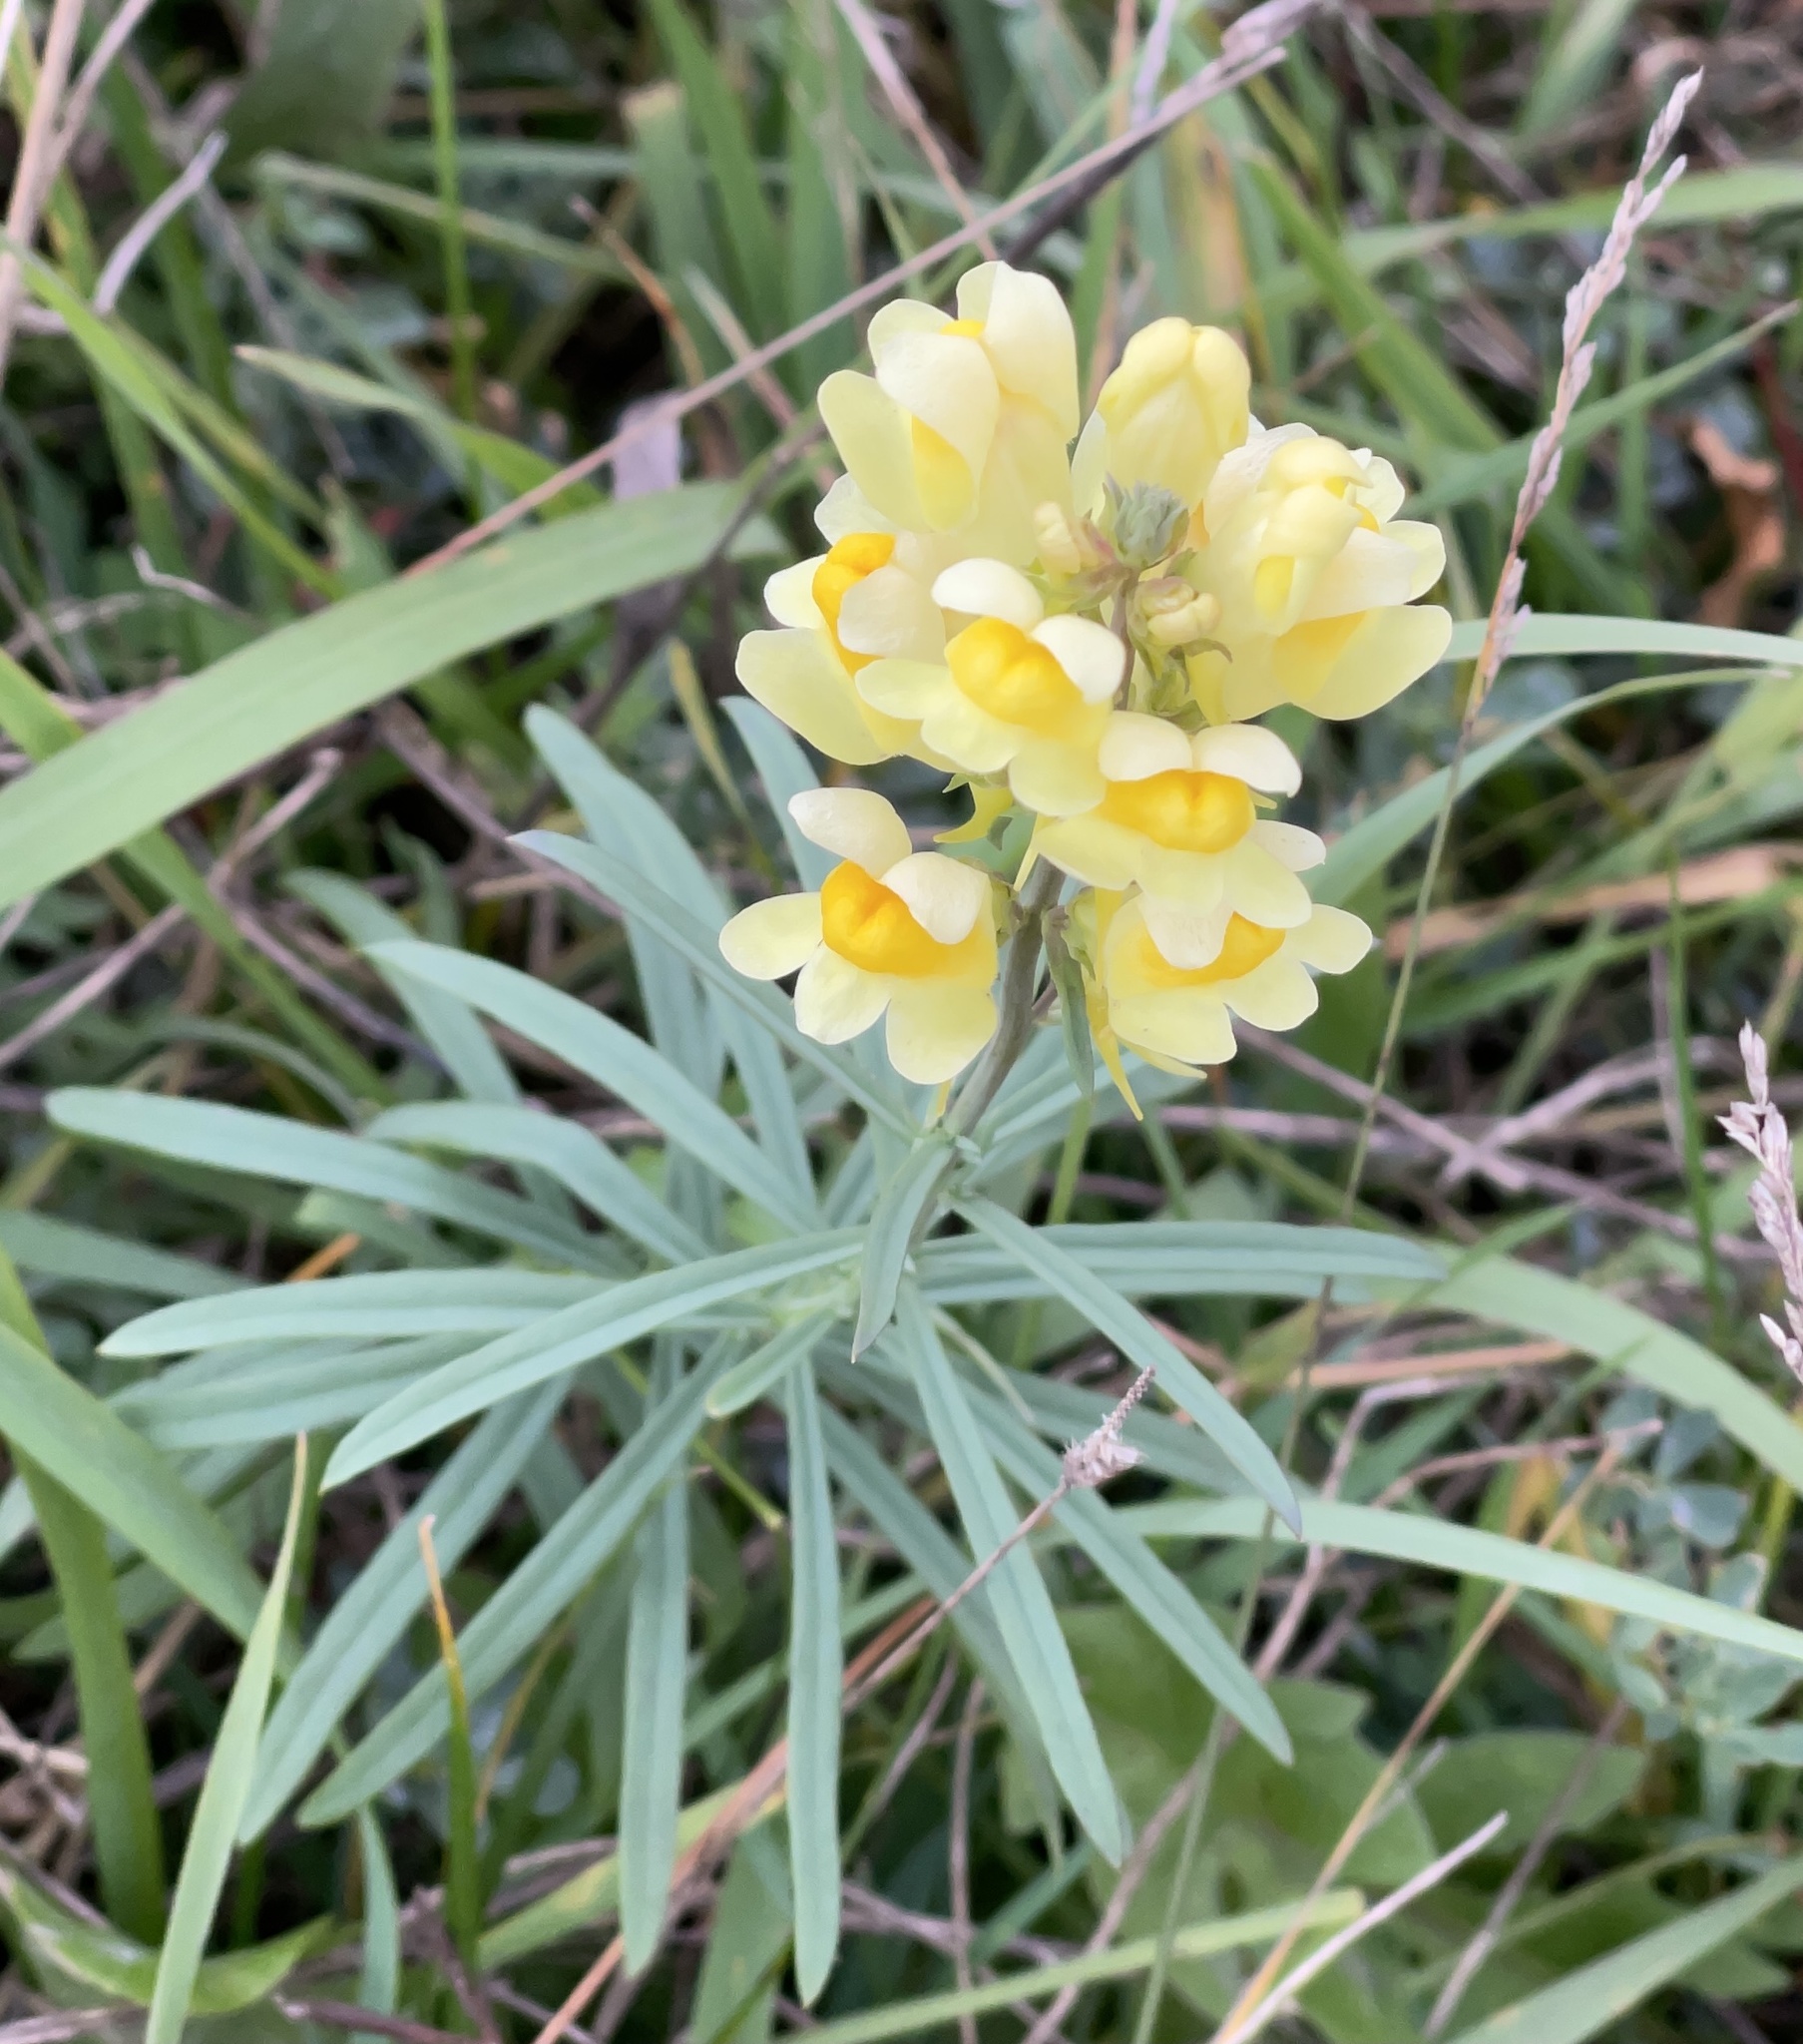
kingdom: Plantae
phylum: Tracheophyta
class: Magnoliopsida
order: Lamiales
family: Plantaginaceae
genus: Linaria
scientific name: Linaria vulgaris
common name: Butter and eggs
